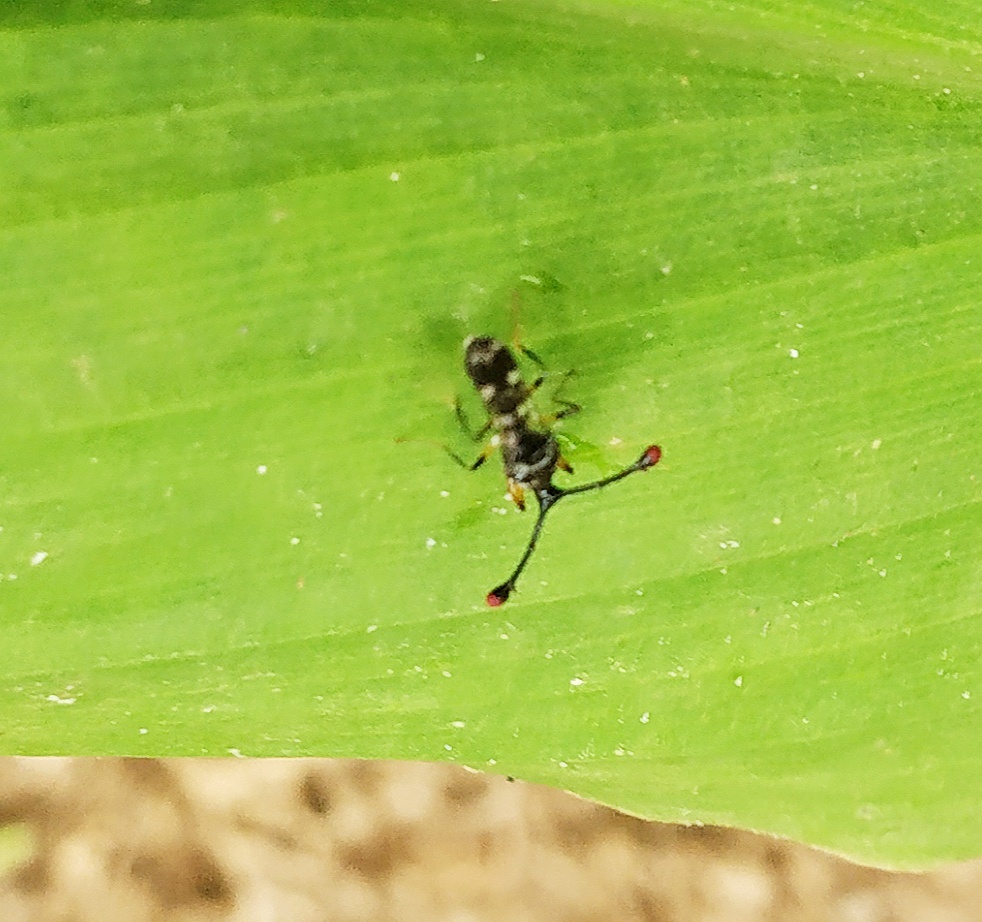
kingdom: Animalia
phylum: Arthropoda
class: Insecta
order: Diptera
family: Diopsidae
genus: Teleopsis
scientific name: Teleopsis sykesii
